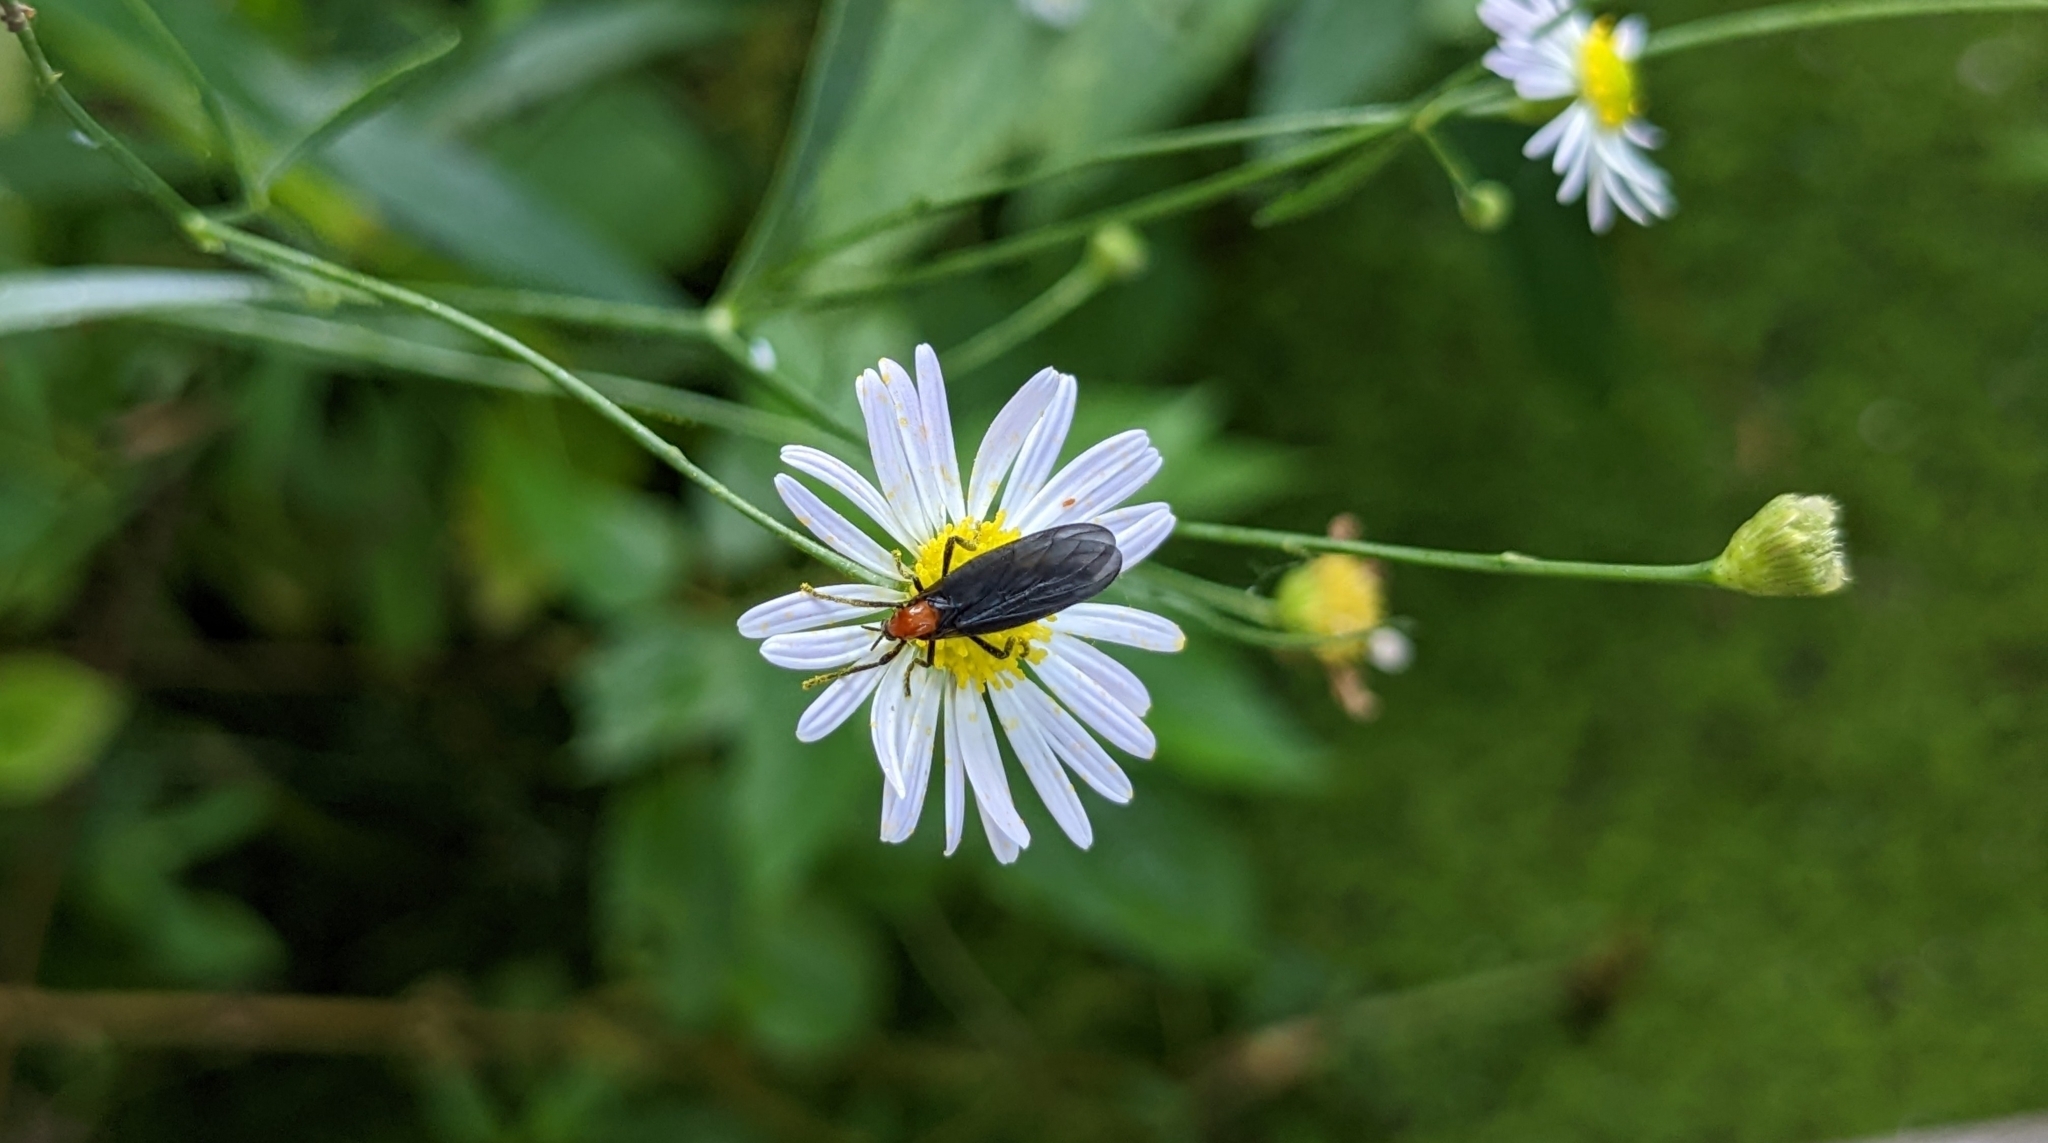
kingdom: Animalia
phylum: Arthropoda
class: Insecta
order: Diptera
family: Bibionidae
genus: Plecia
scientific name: Plecia nearctica
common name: March fly
